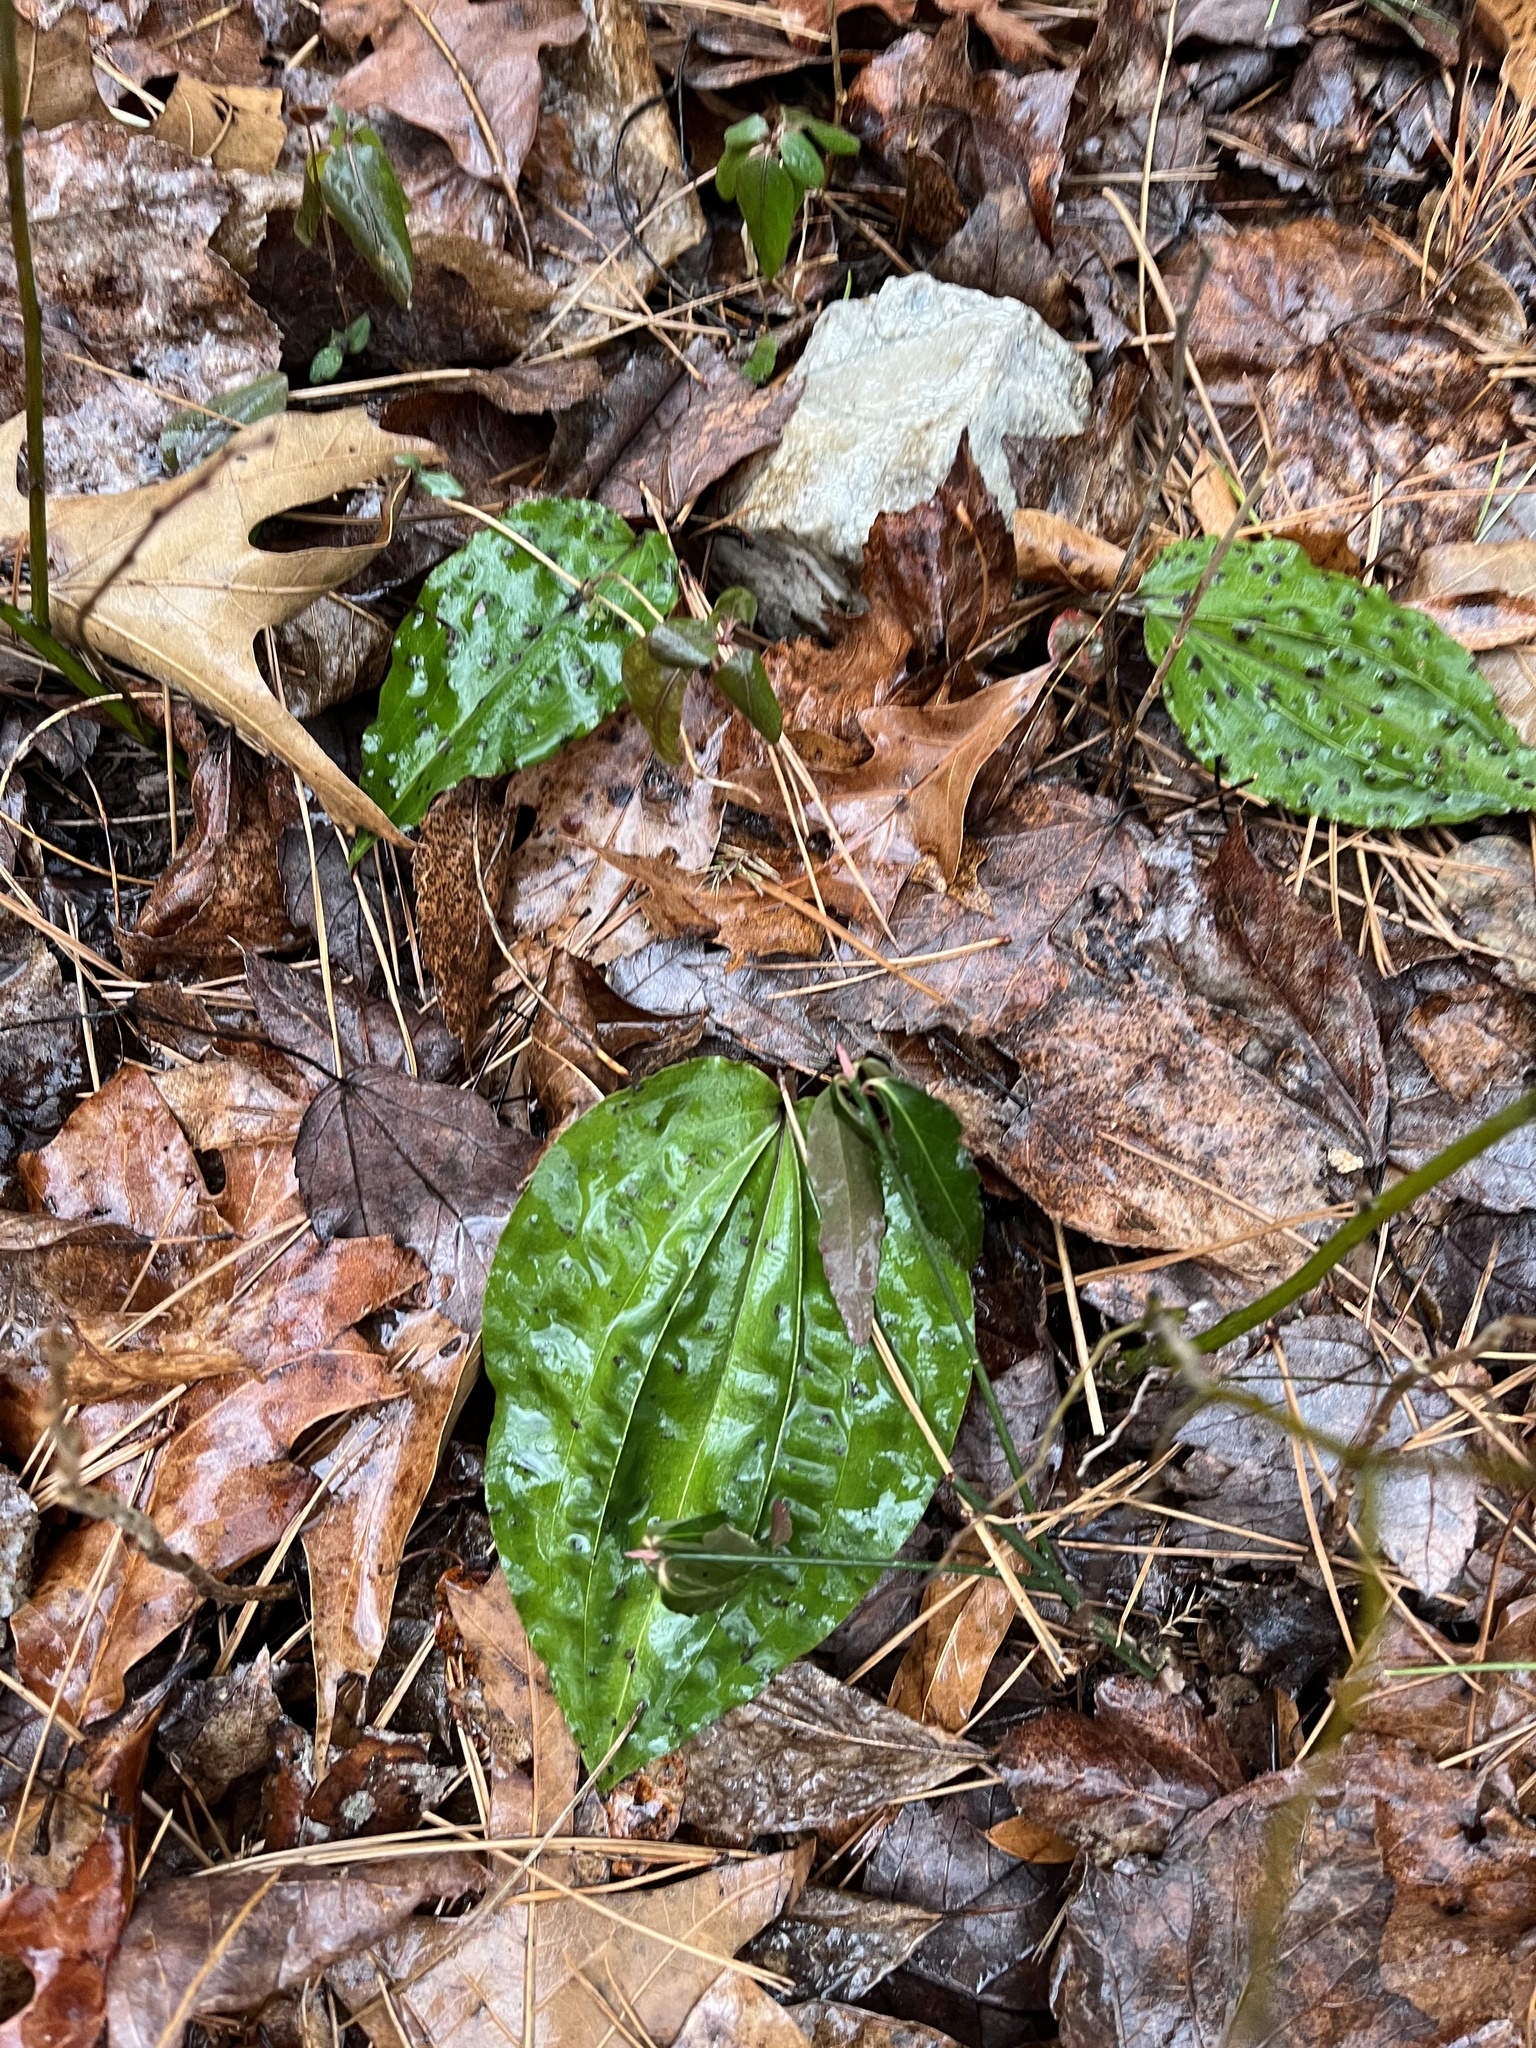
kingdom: Plantae
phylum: Tracheophyta
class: Liliopsida
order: Asparagales
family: Orchidaceae
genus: Tipularia
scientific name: Tipularia discolor
